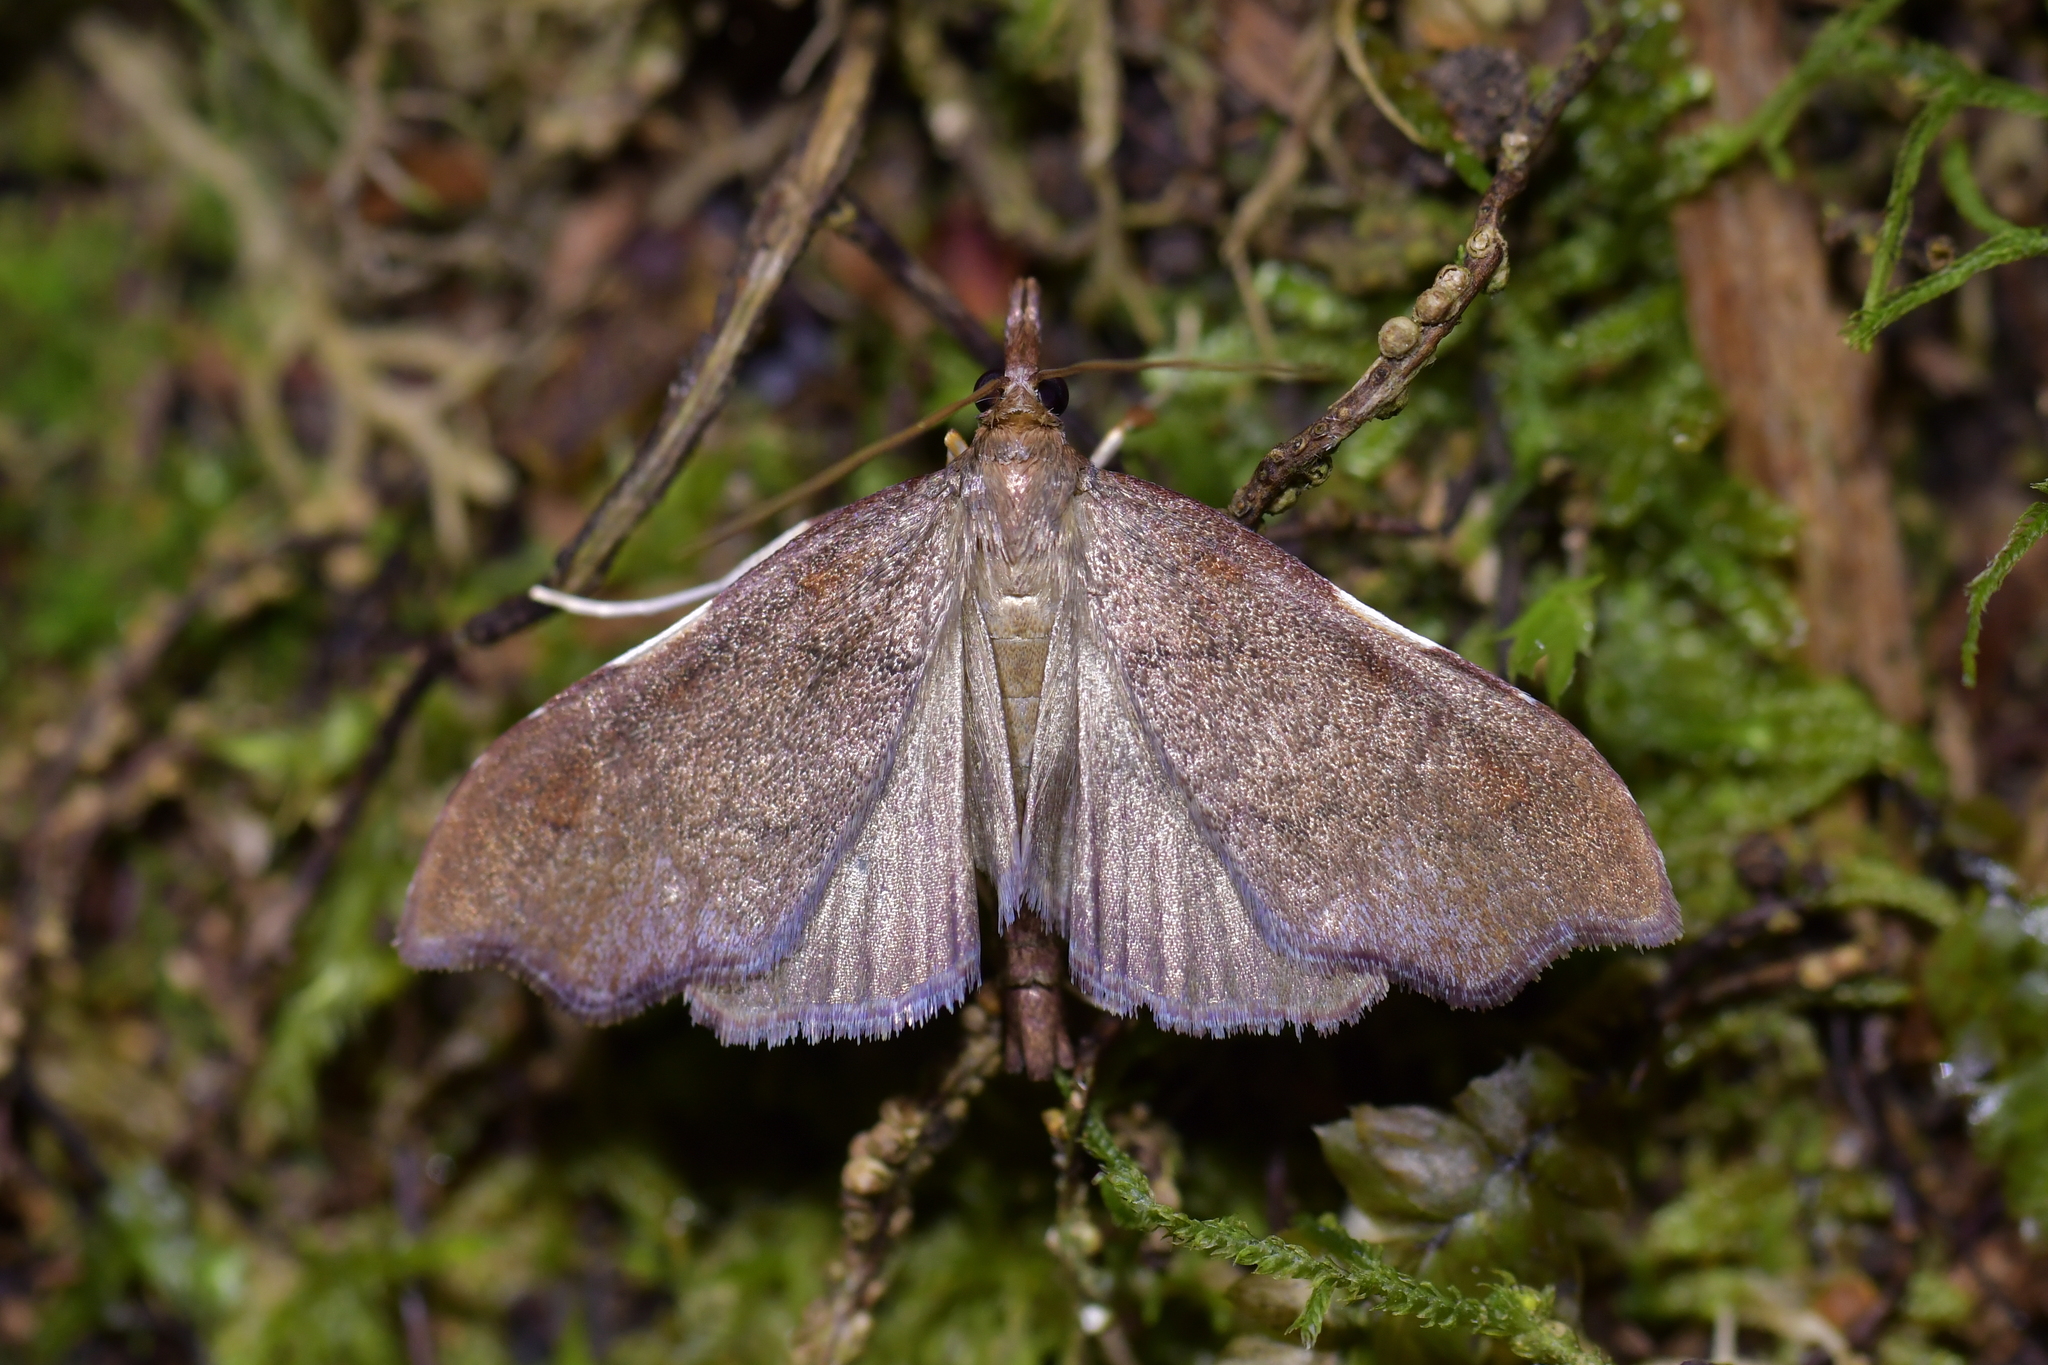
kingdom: Animalia
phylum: Arthropoda
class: Insecta
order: Lepidoptera
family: Crambidae
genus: Deana
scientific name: Deana hybreasalis
